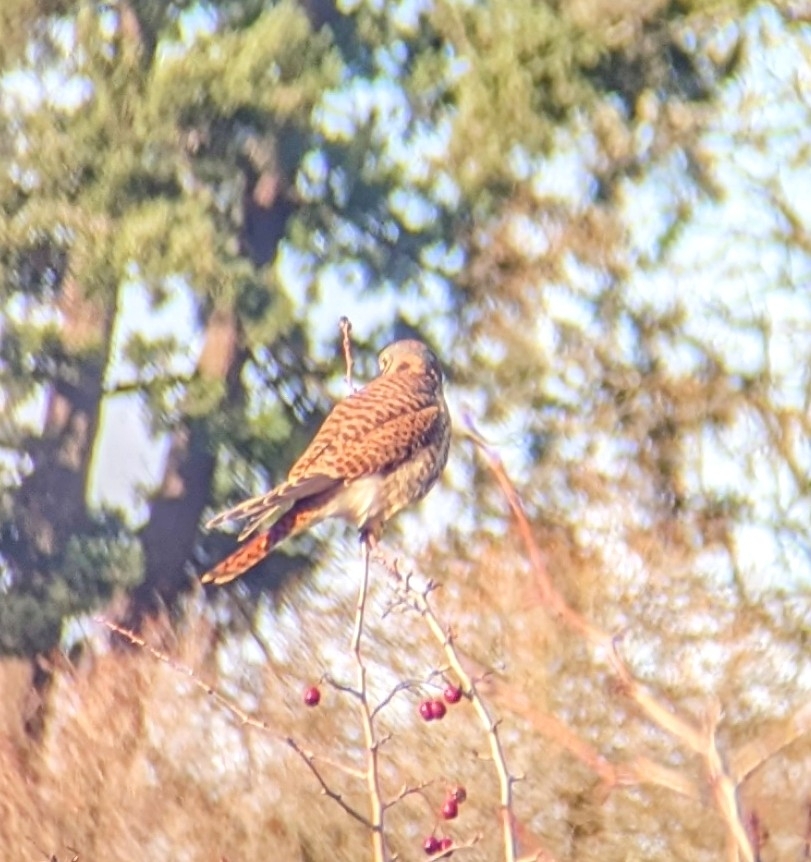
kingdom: Animalia
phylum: Chordata
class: Aves
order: Falconiformes
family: Falconidae
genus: Falco
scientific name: Falco sparverius
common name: American kestrel
